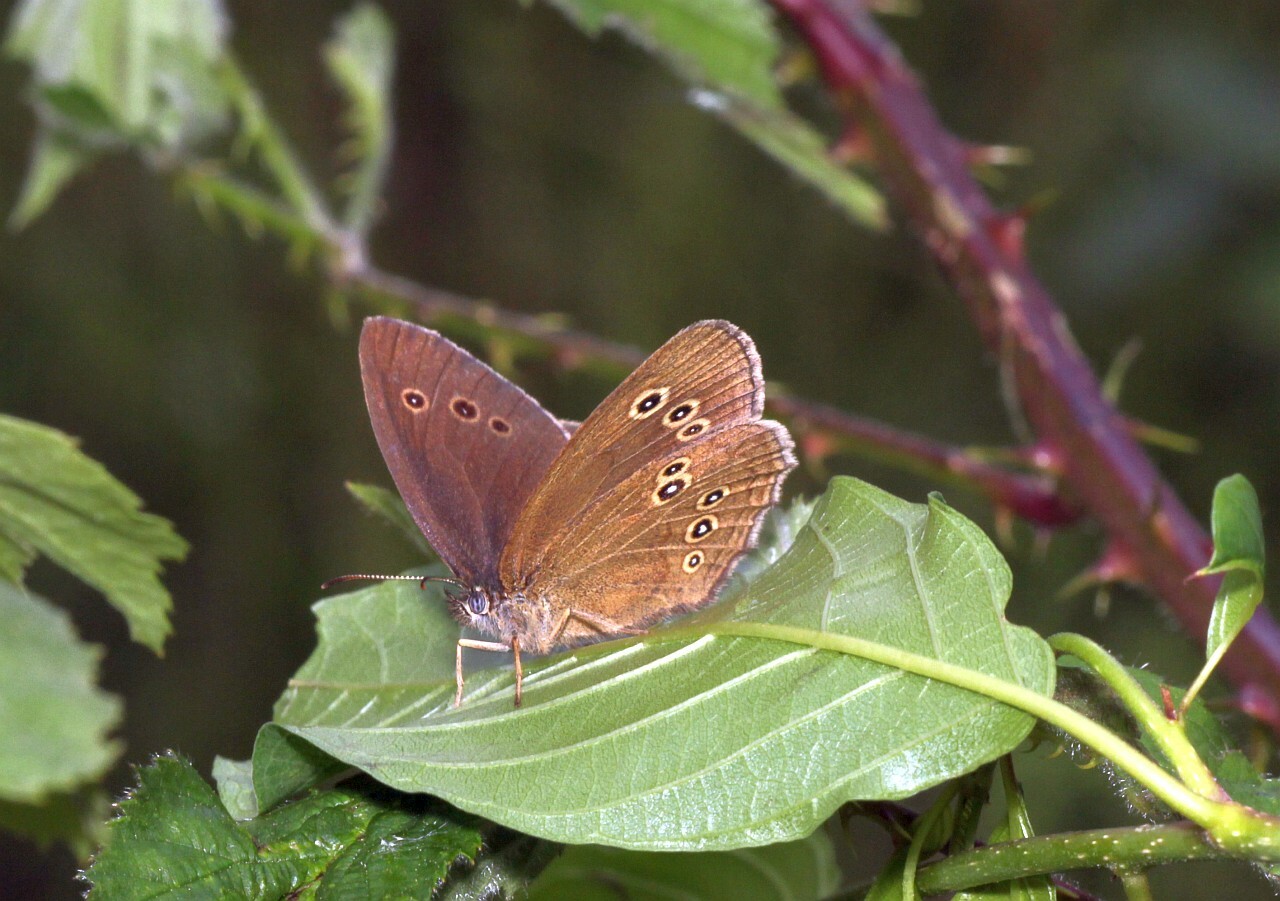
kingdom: Animalia
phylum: Arthropoda
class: Insecta
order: Lepidoptera
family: Nymphalidae
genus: Aphantopus
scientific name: Aphantopus hyperantus
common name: Ringlet
